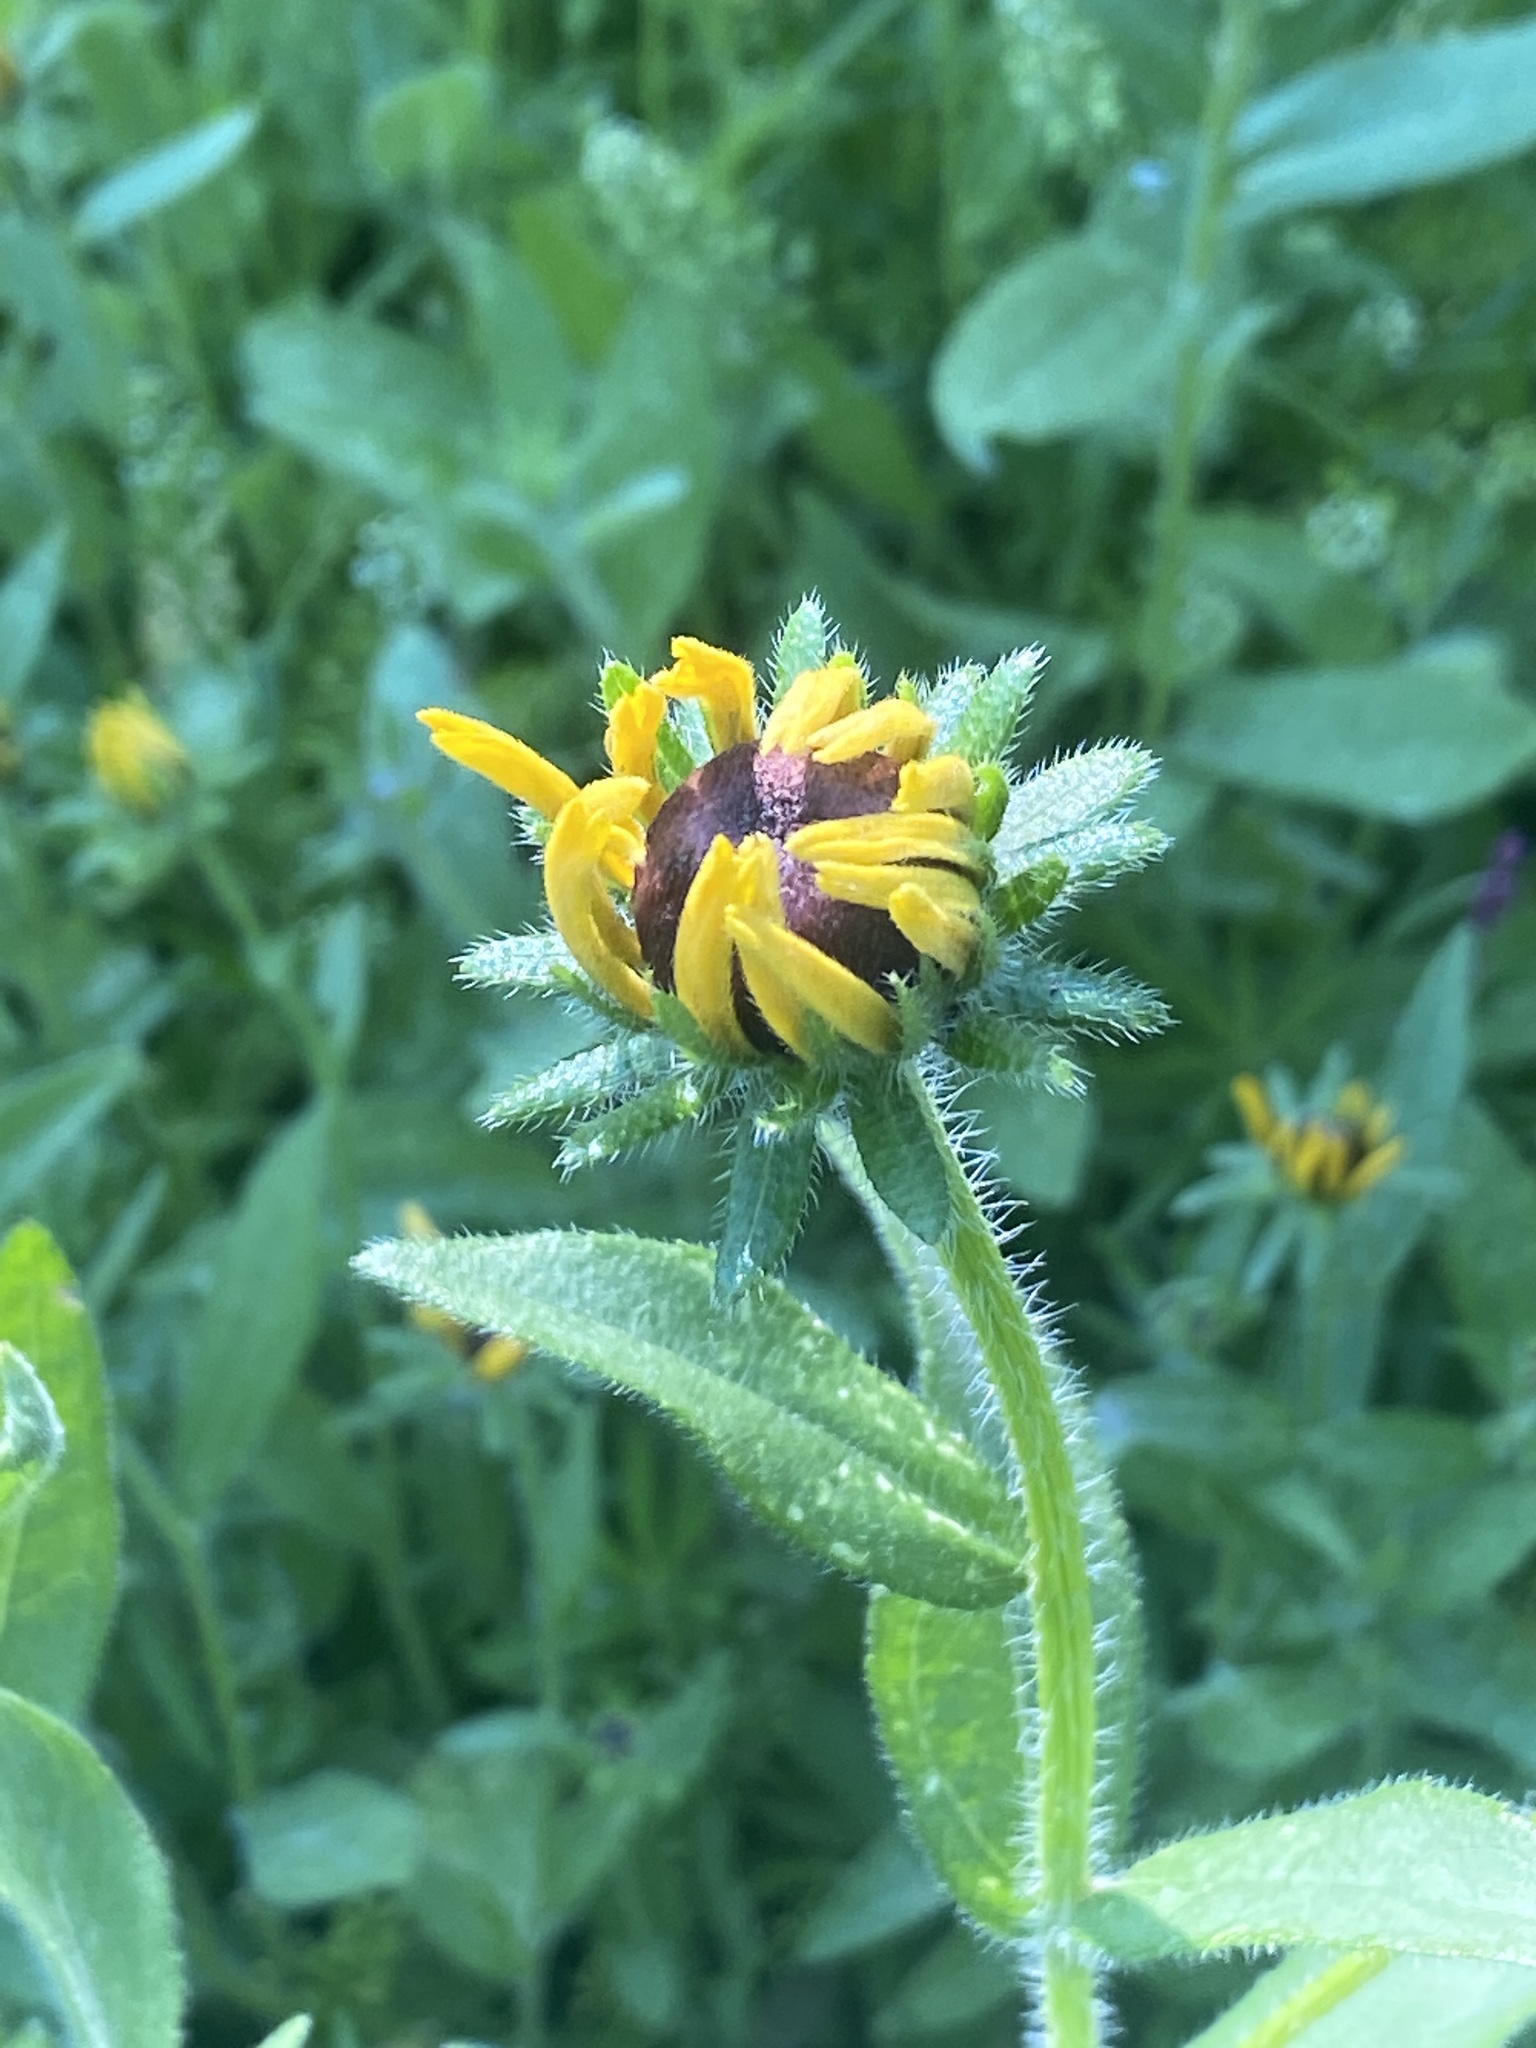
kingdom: Plantae
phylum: Tracheophyta
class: Magnoliopsida
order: Asterales
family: Asteraceae
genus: Rudbeckia
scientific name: Rudbeckia hirta
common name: Black-eyed-susan
